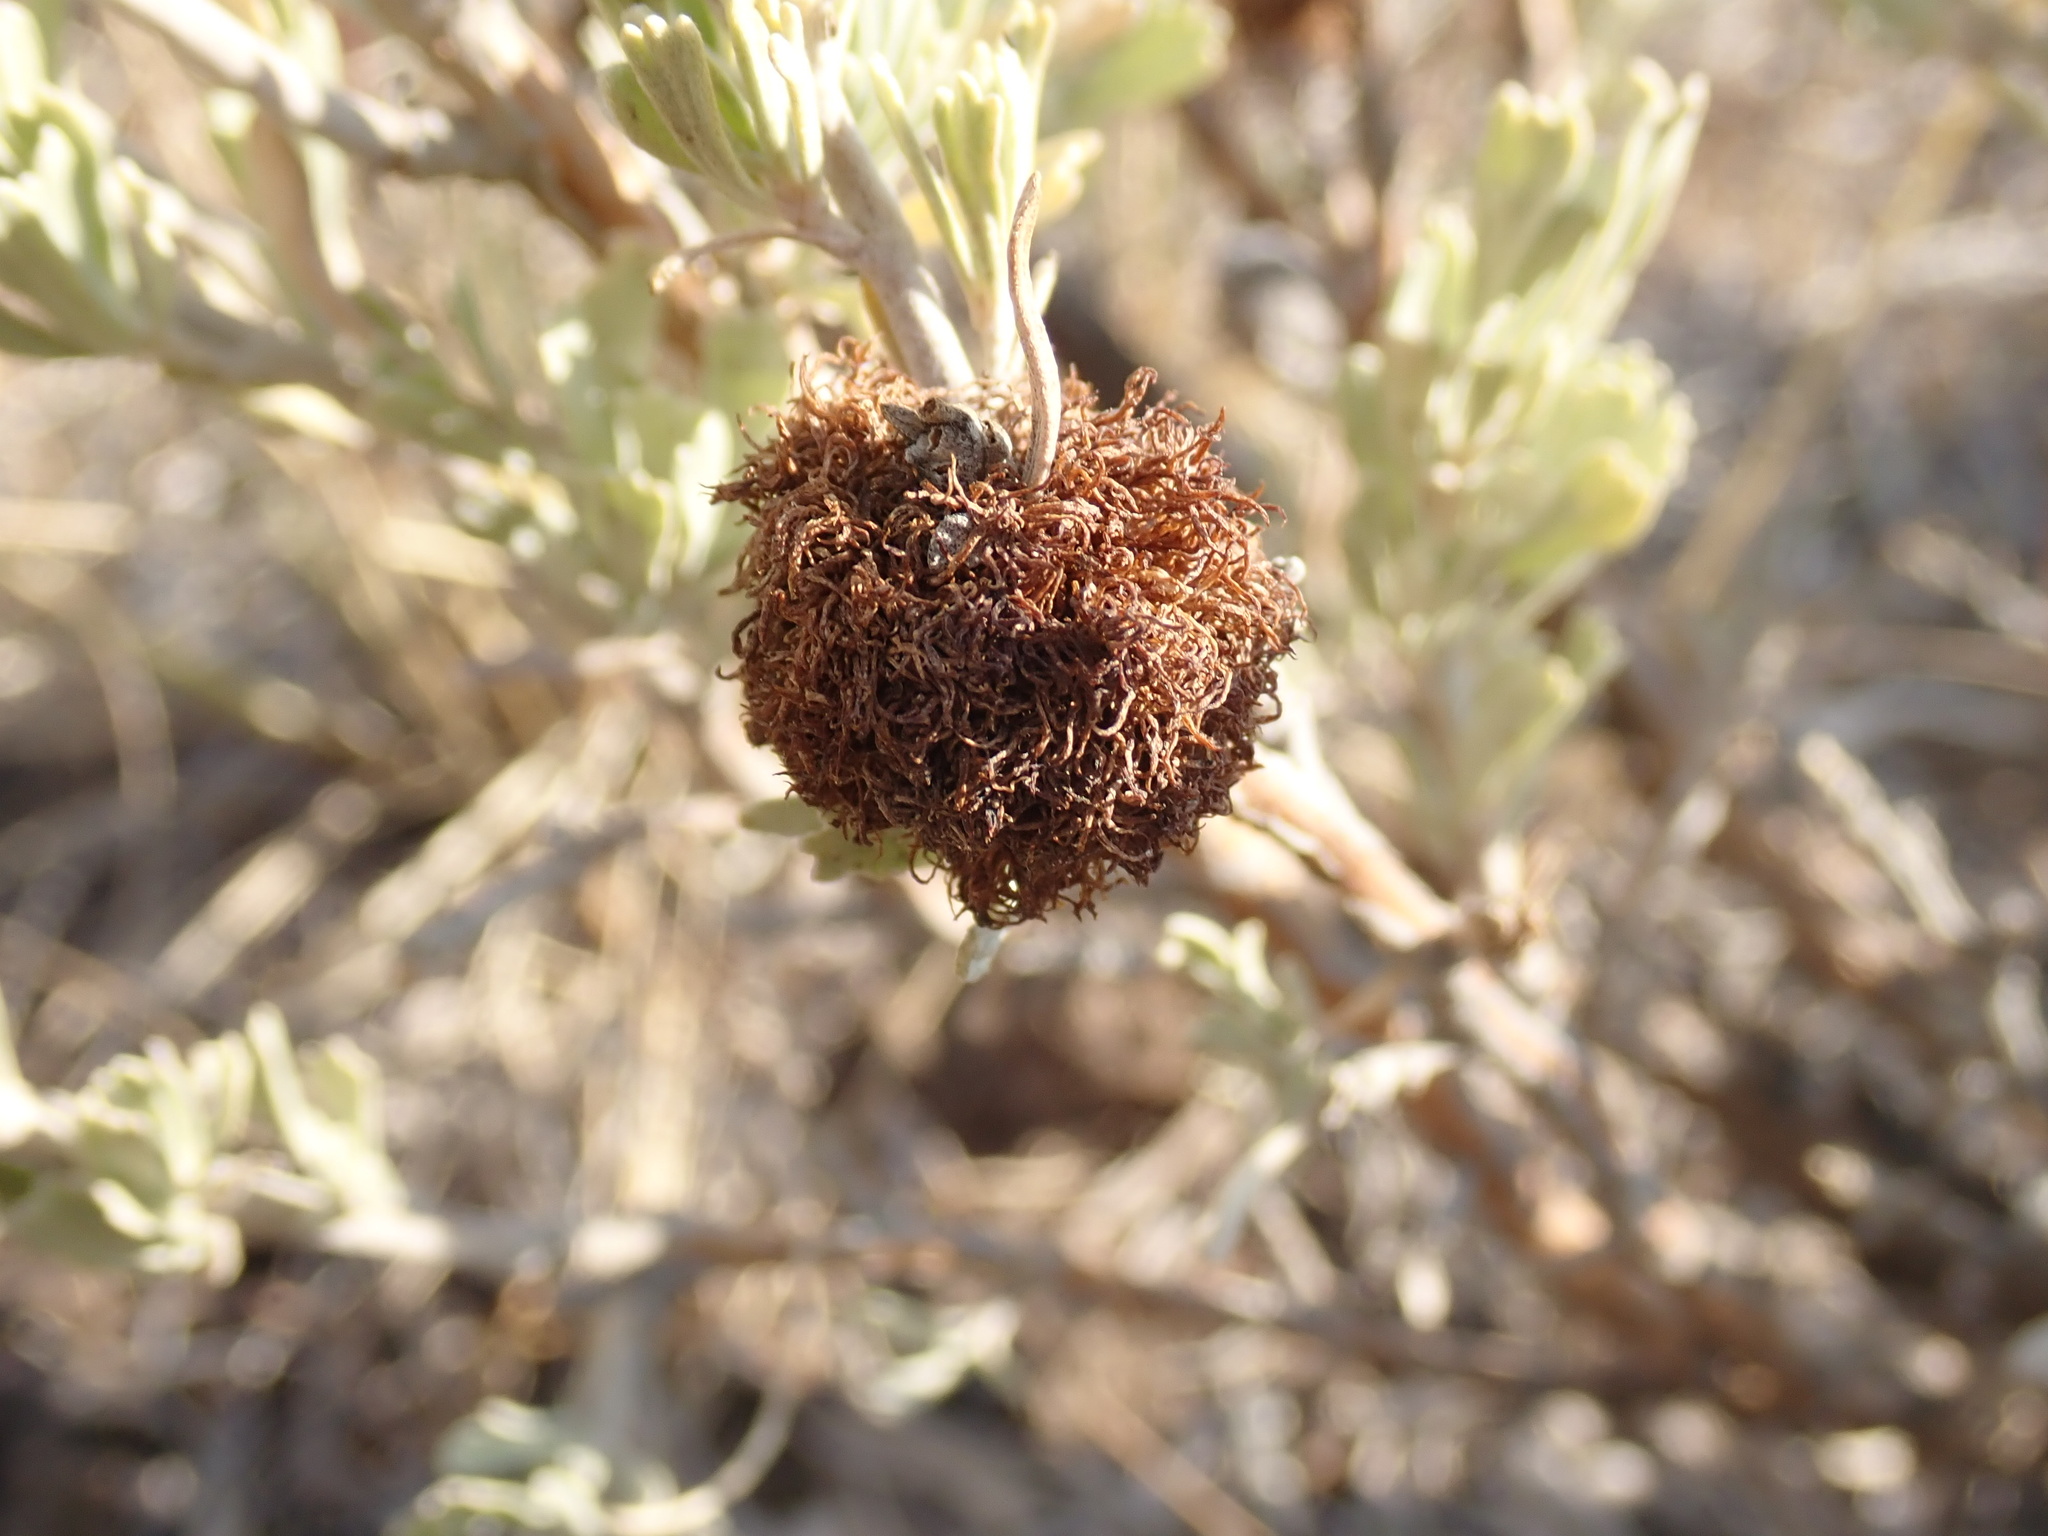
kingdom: Animalia
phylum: Arthropoda
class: Insecta
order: Diptera
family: Cecidomyiidae
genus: Rhopalomyia
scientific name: Rhopalomyia medusa
